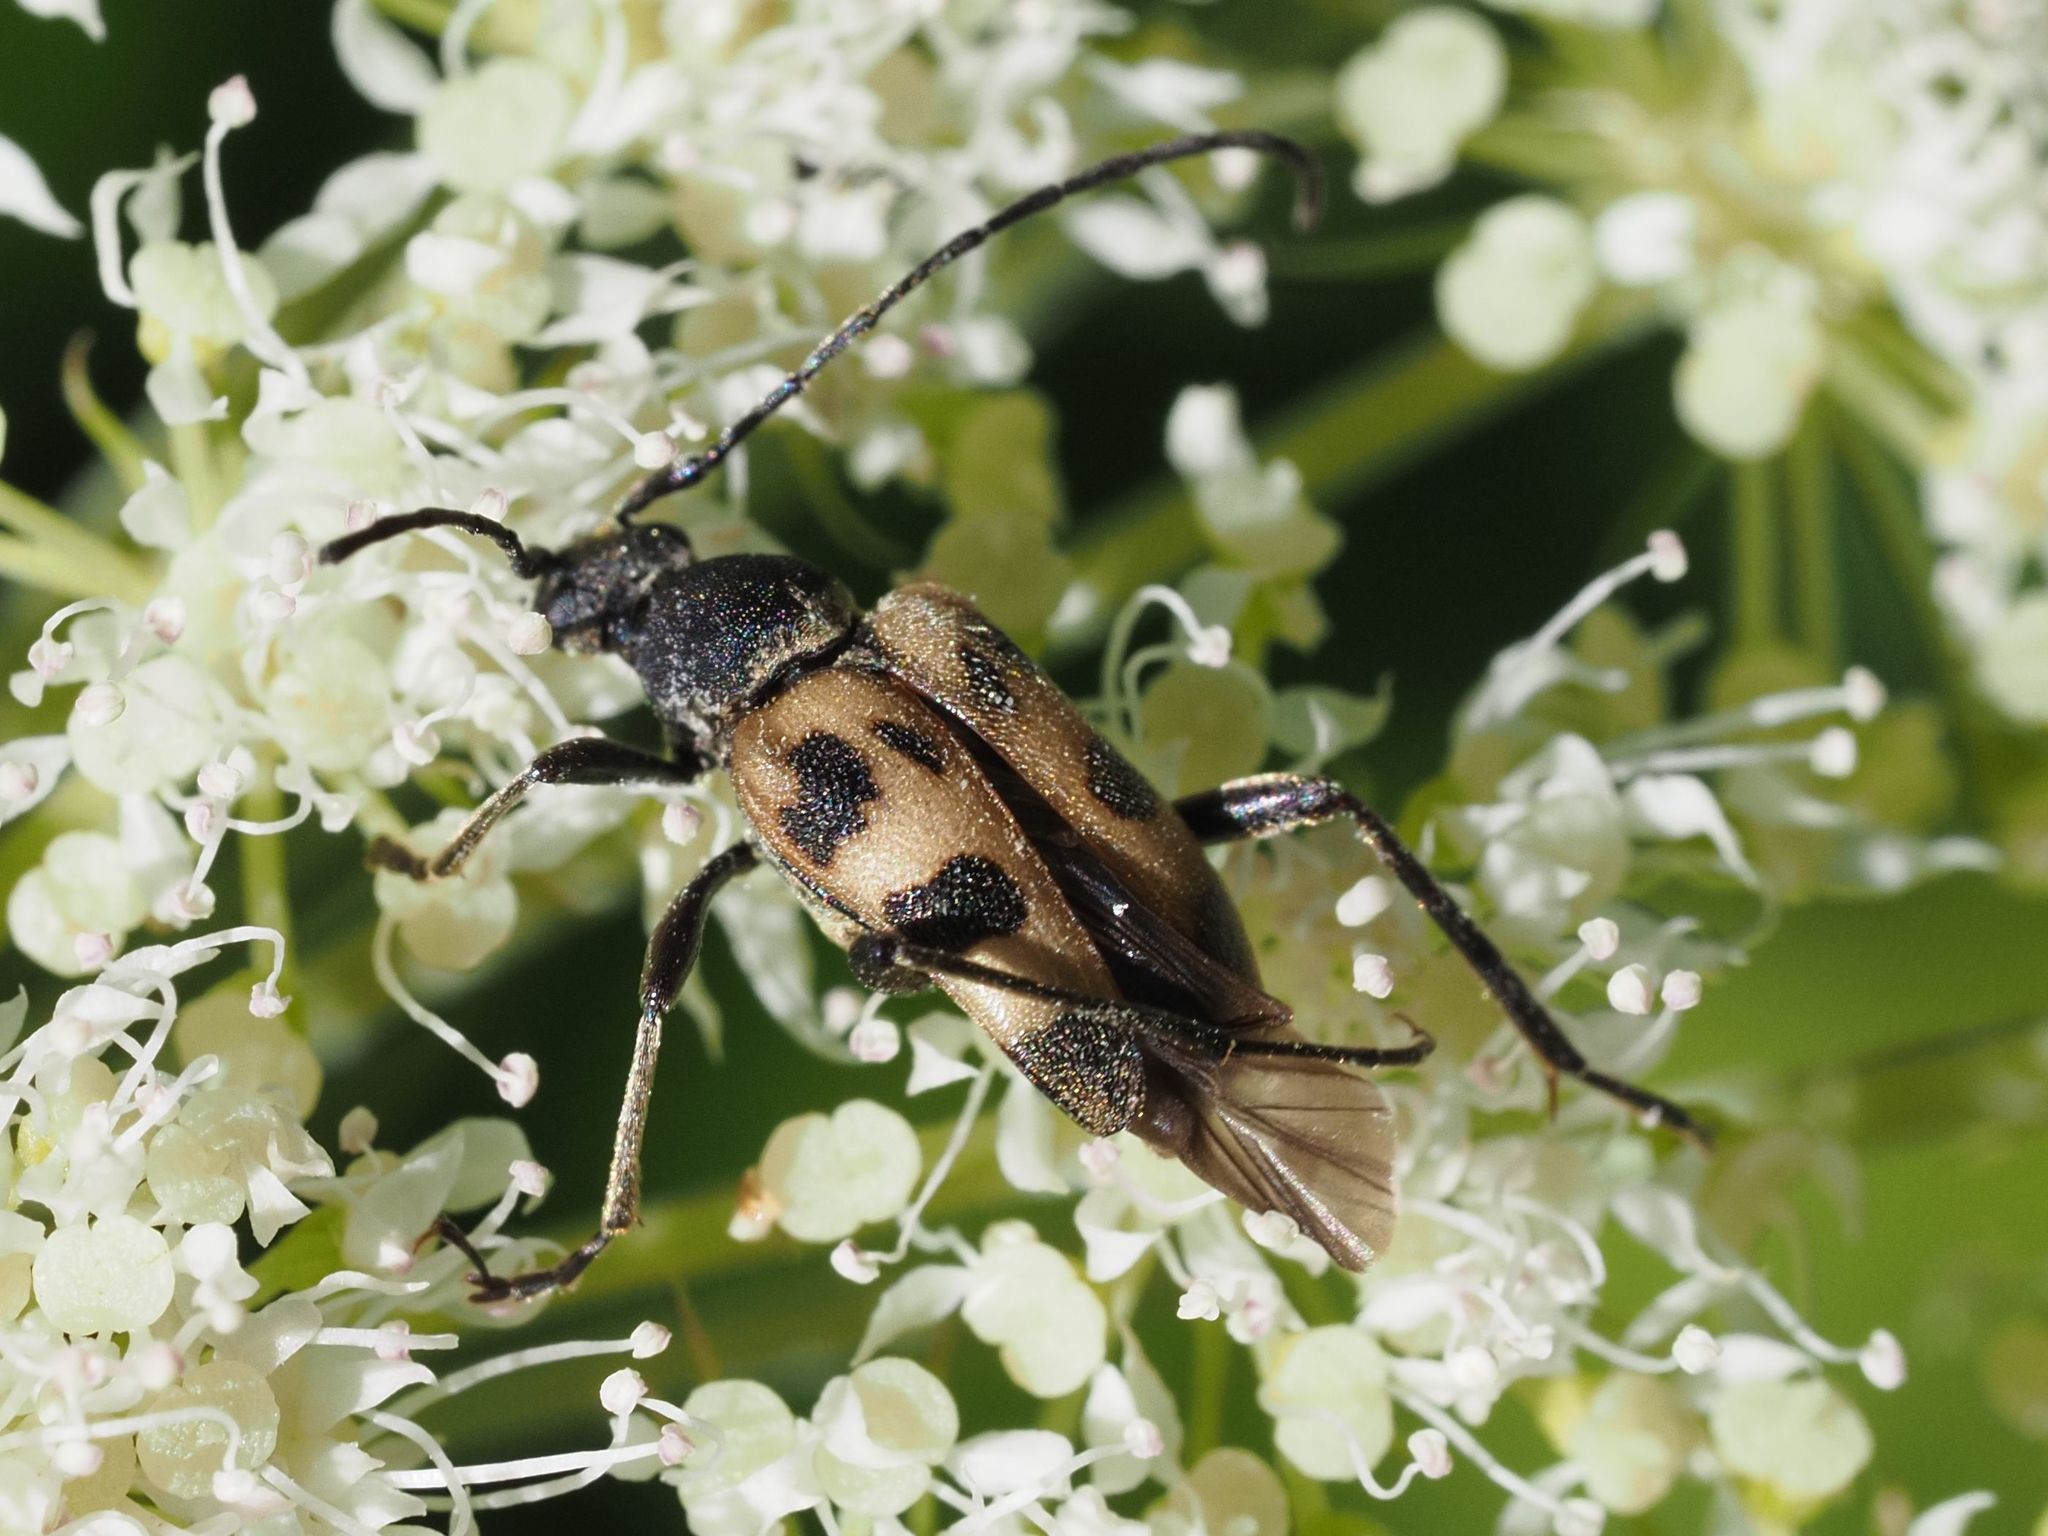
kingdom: Animalia
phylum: Arthropoda
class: Insecta
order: Coleoptera
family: Cerambycidae
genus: Pachytodes
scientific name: Pachytodes cerambyciformis
